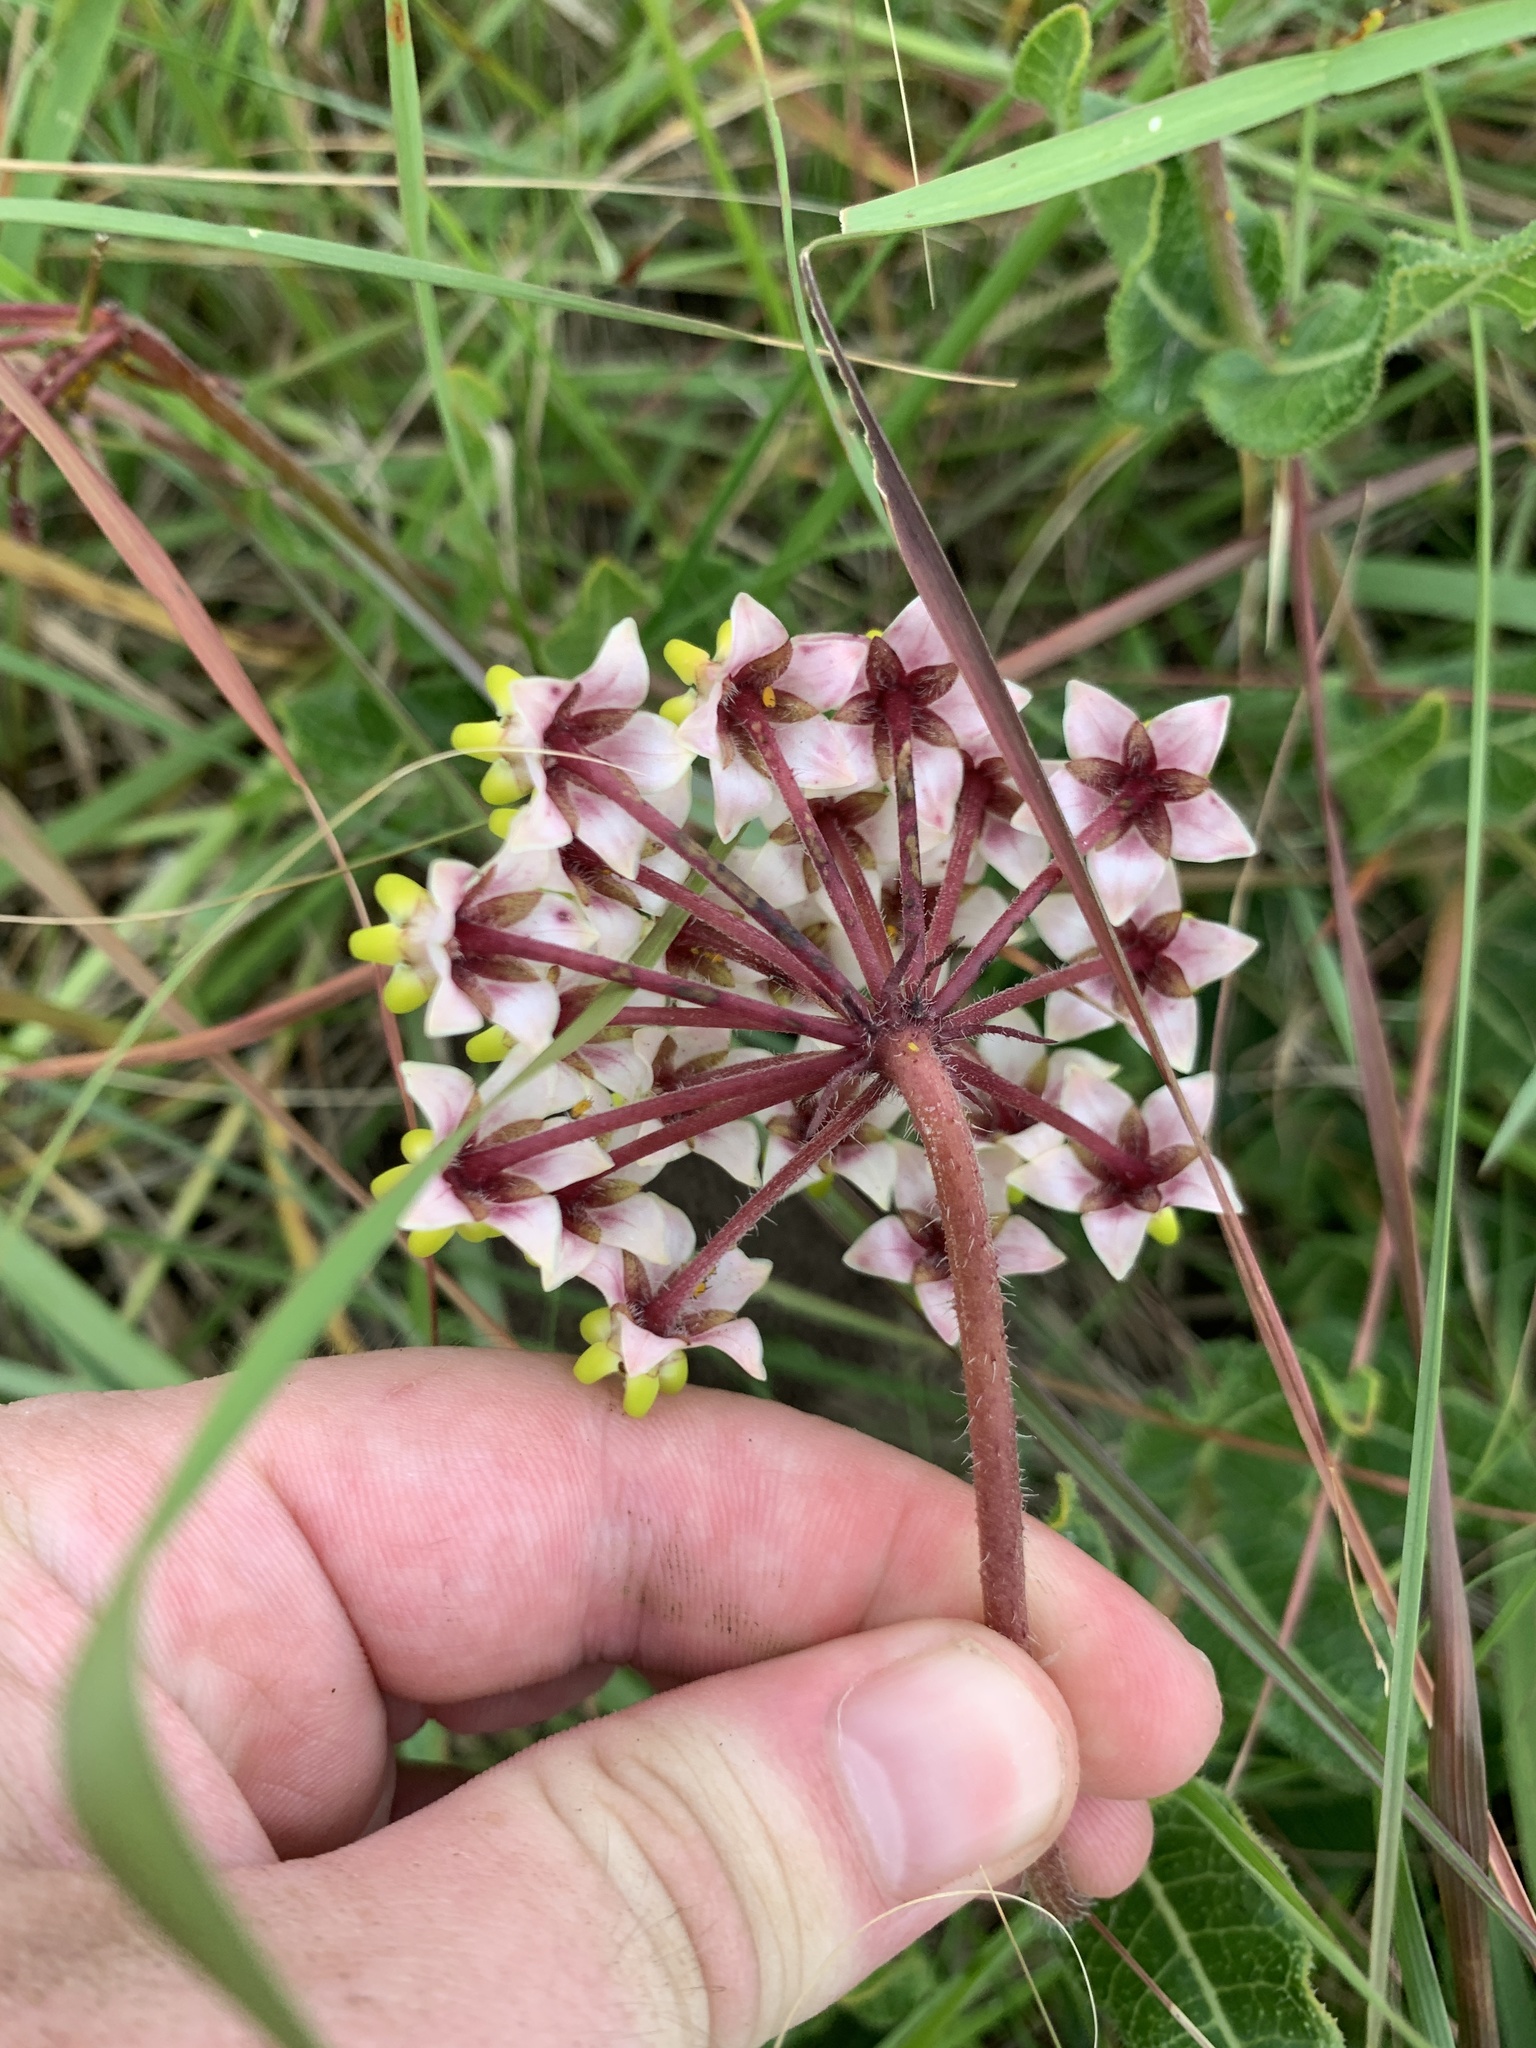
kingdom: Plantae
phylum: Tracheophyta
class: Magnoliopsida
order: Gentianales
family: Apocynaceae
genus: Asclepias
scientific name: Asclepias albens
